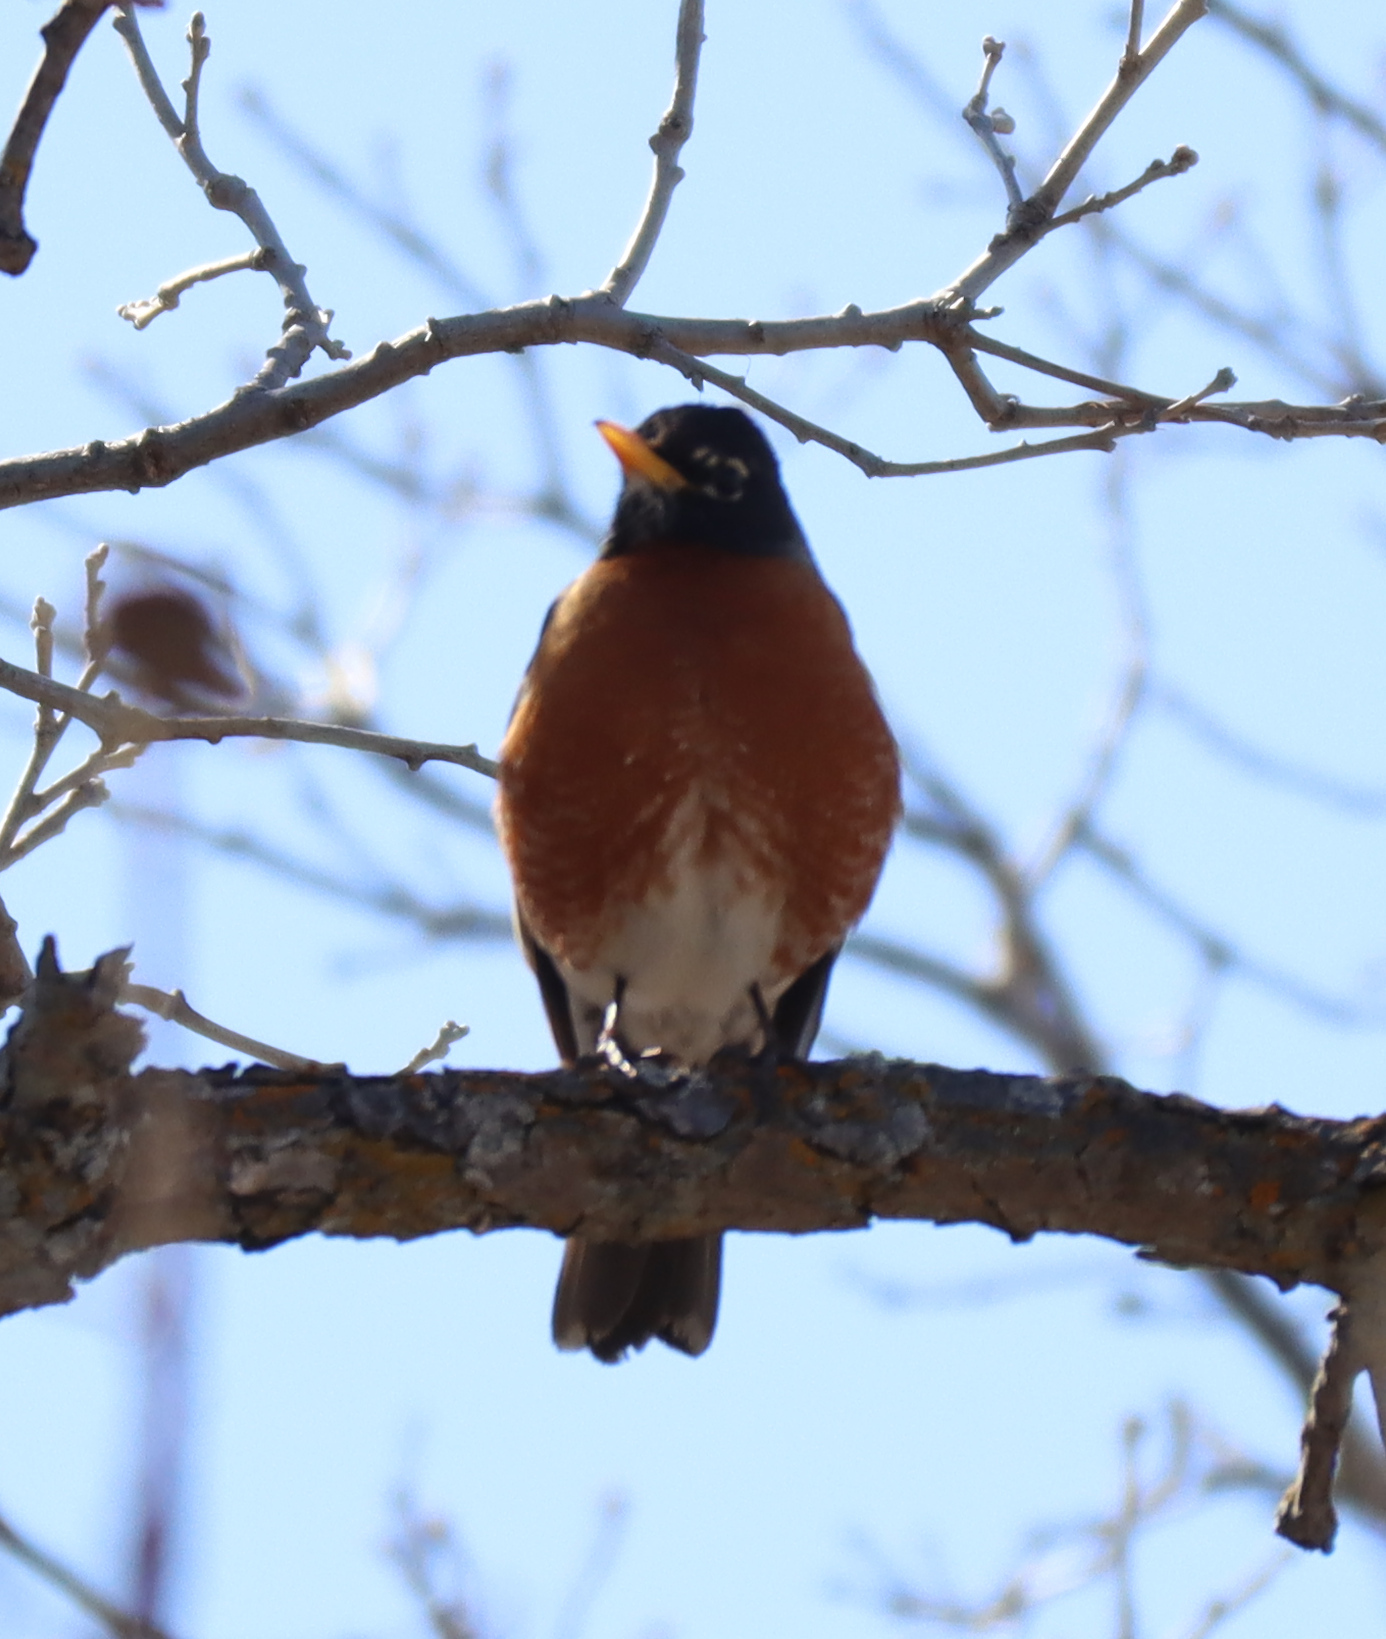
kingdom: Animalia
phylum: Chordata
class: Aves
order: Passeriformes
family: Turdidae
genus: Turdus
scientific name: Turdus migratorius
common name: American robin
